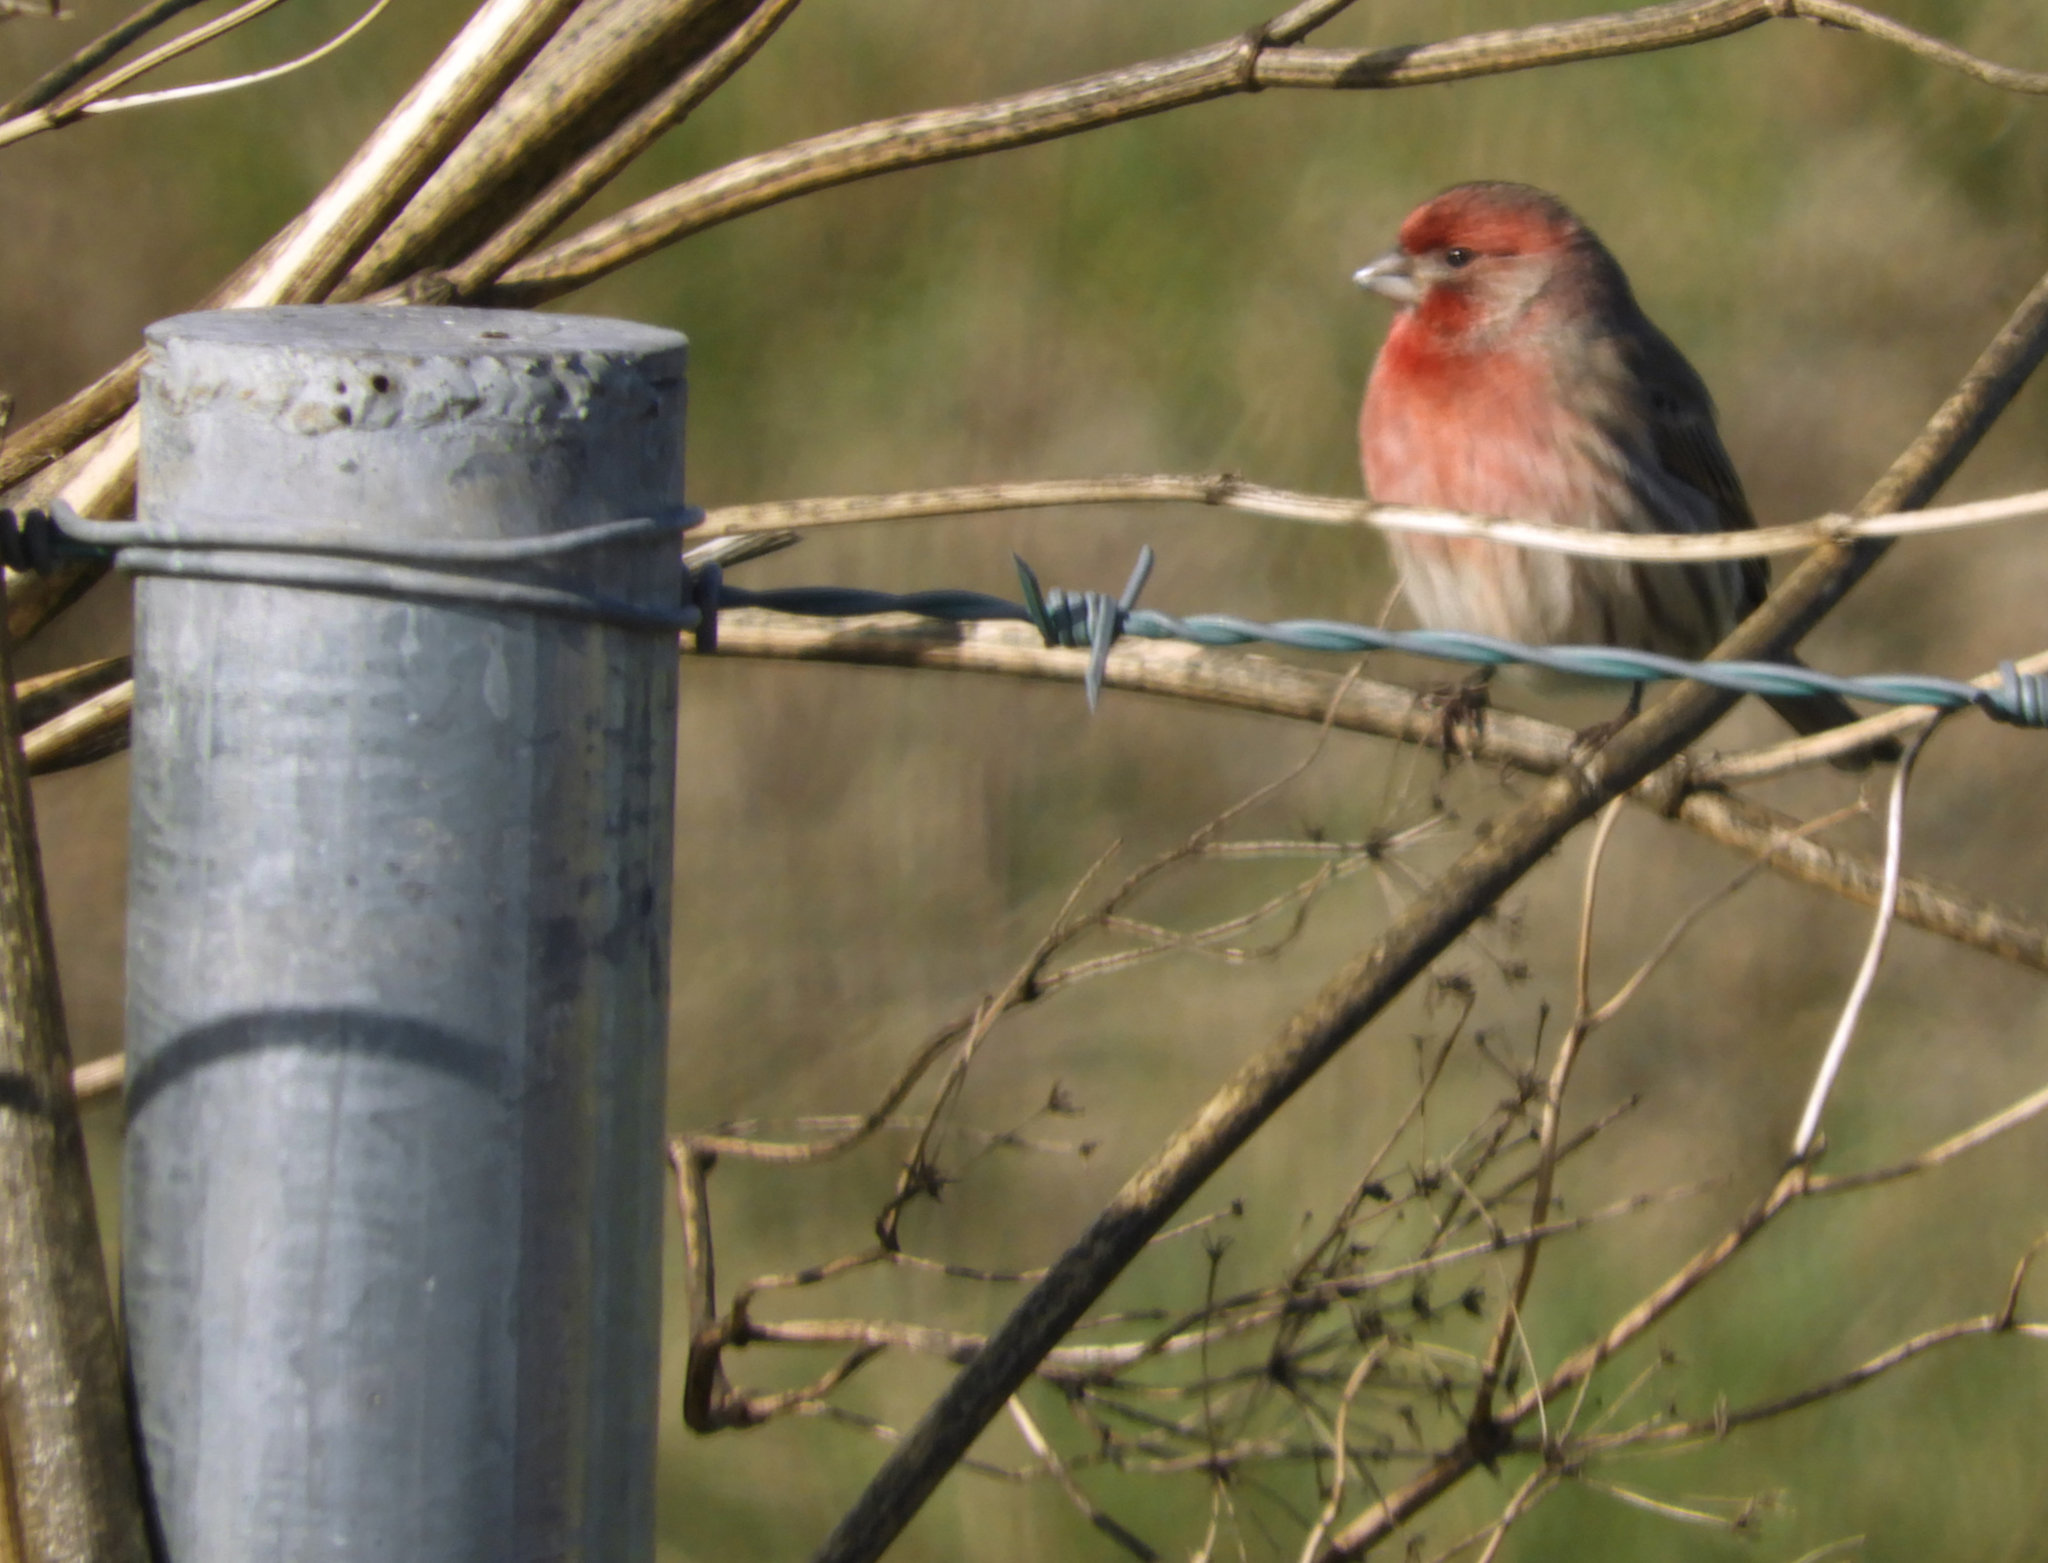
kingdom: Animalia
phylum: Chordata
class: Aves
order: Passeriformes
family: Fringillidae
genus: Haemorhous
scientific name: Haemorhous mexicanus
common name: House finch
